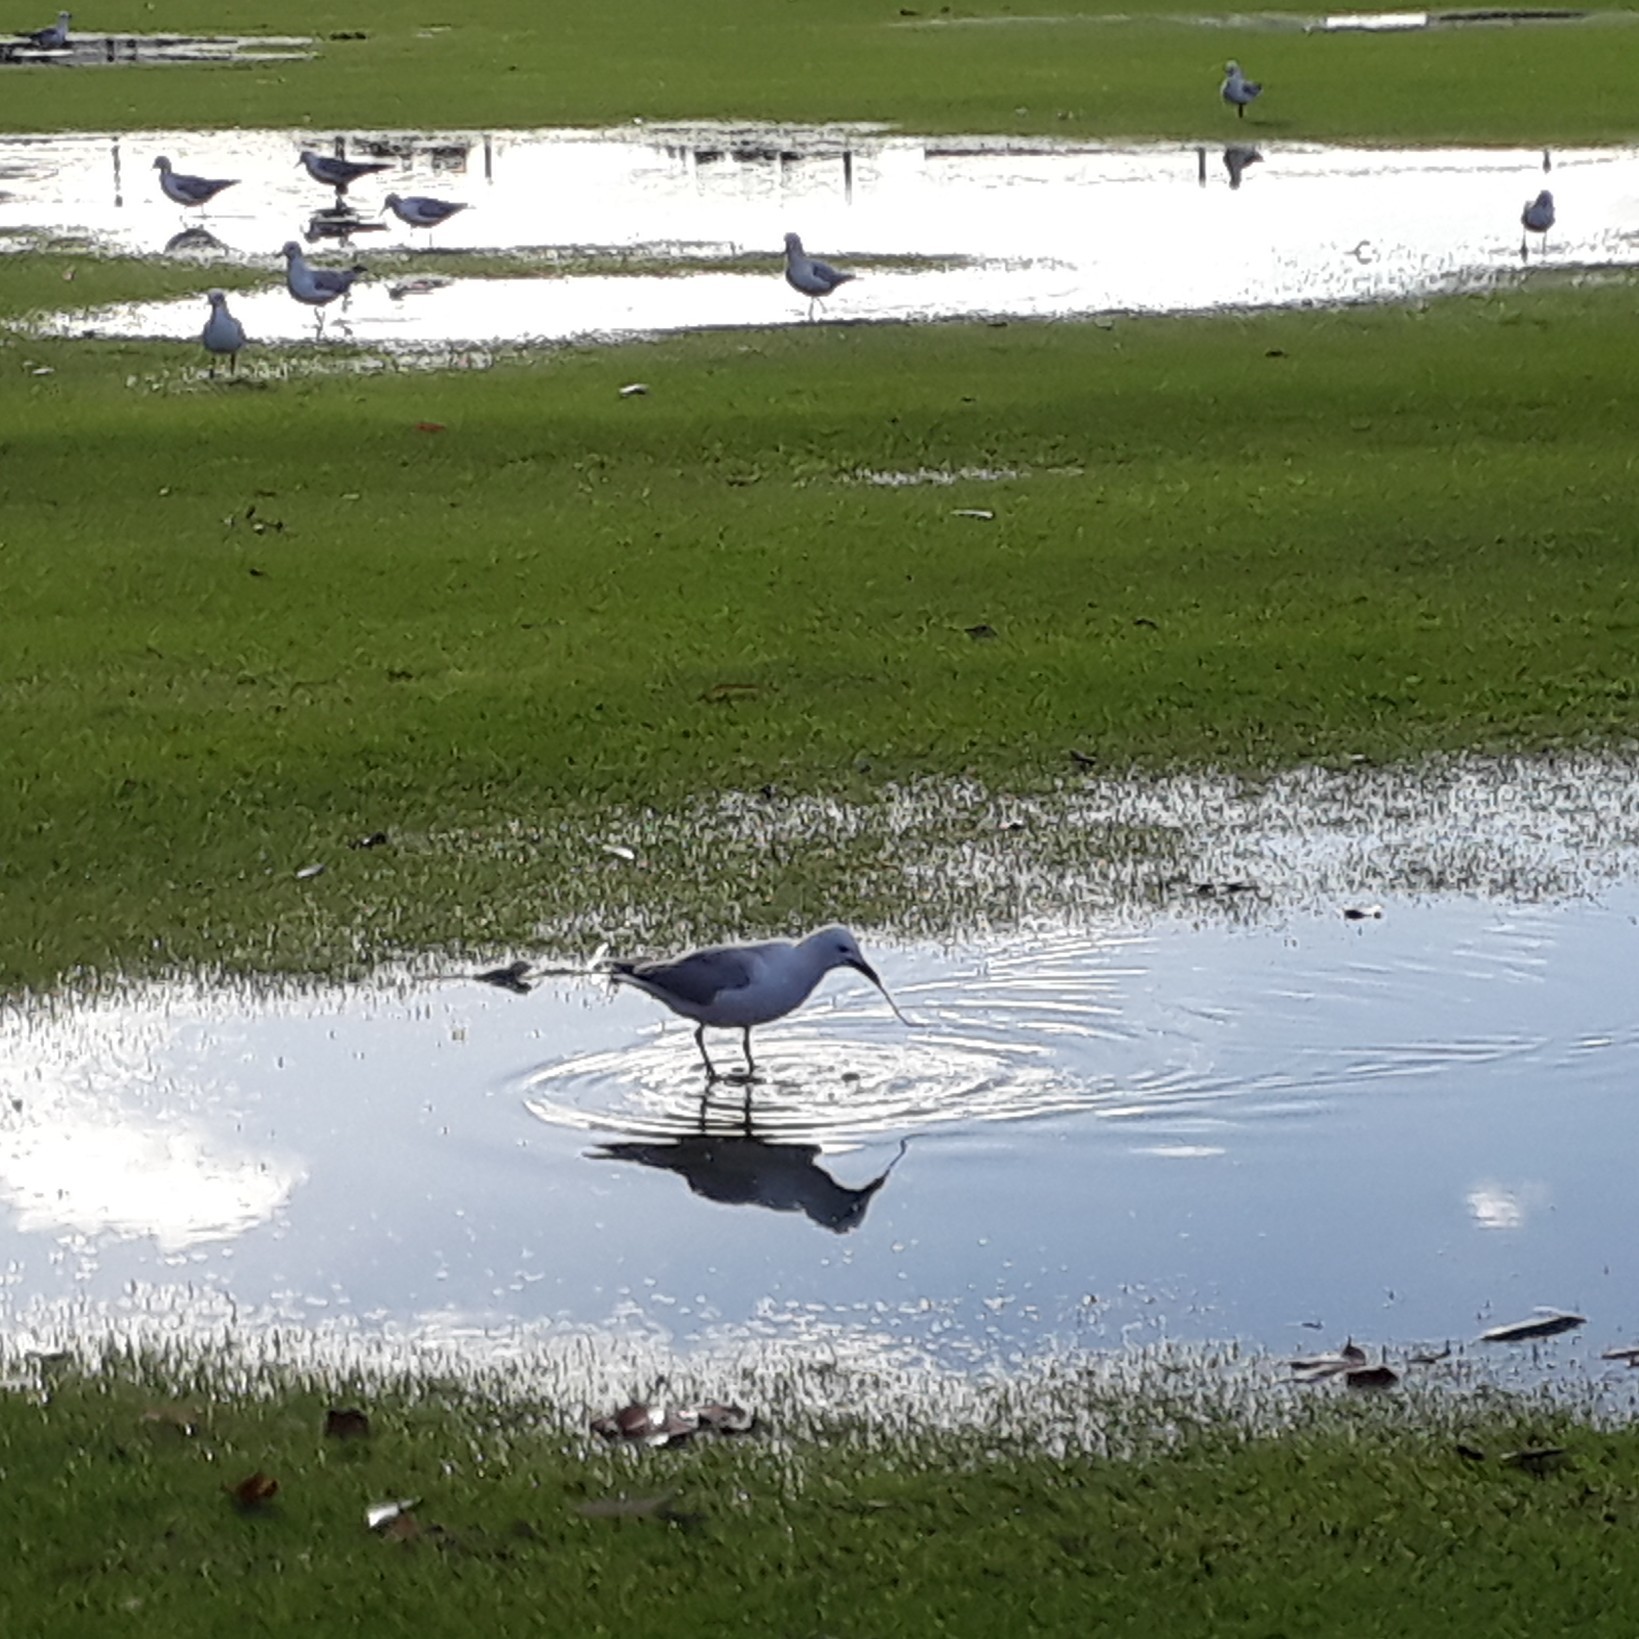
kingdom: Animalia
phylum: Chordata
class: Aves
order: Charadriiformes
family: Laridae
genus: Chroicocephalus
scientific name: Chroicocephalus hartlaubii
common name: Hartlaub's gull
